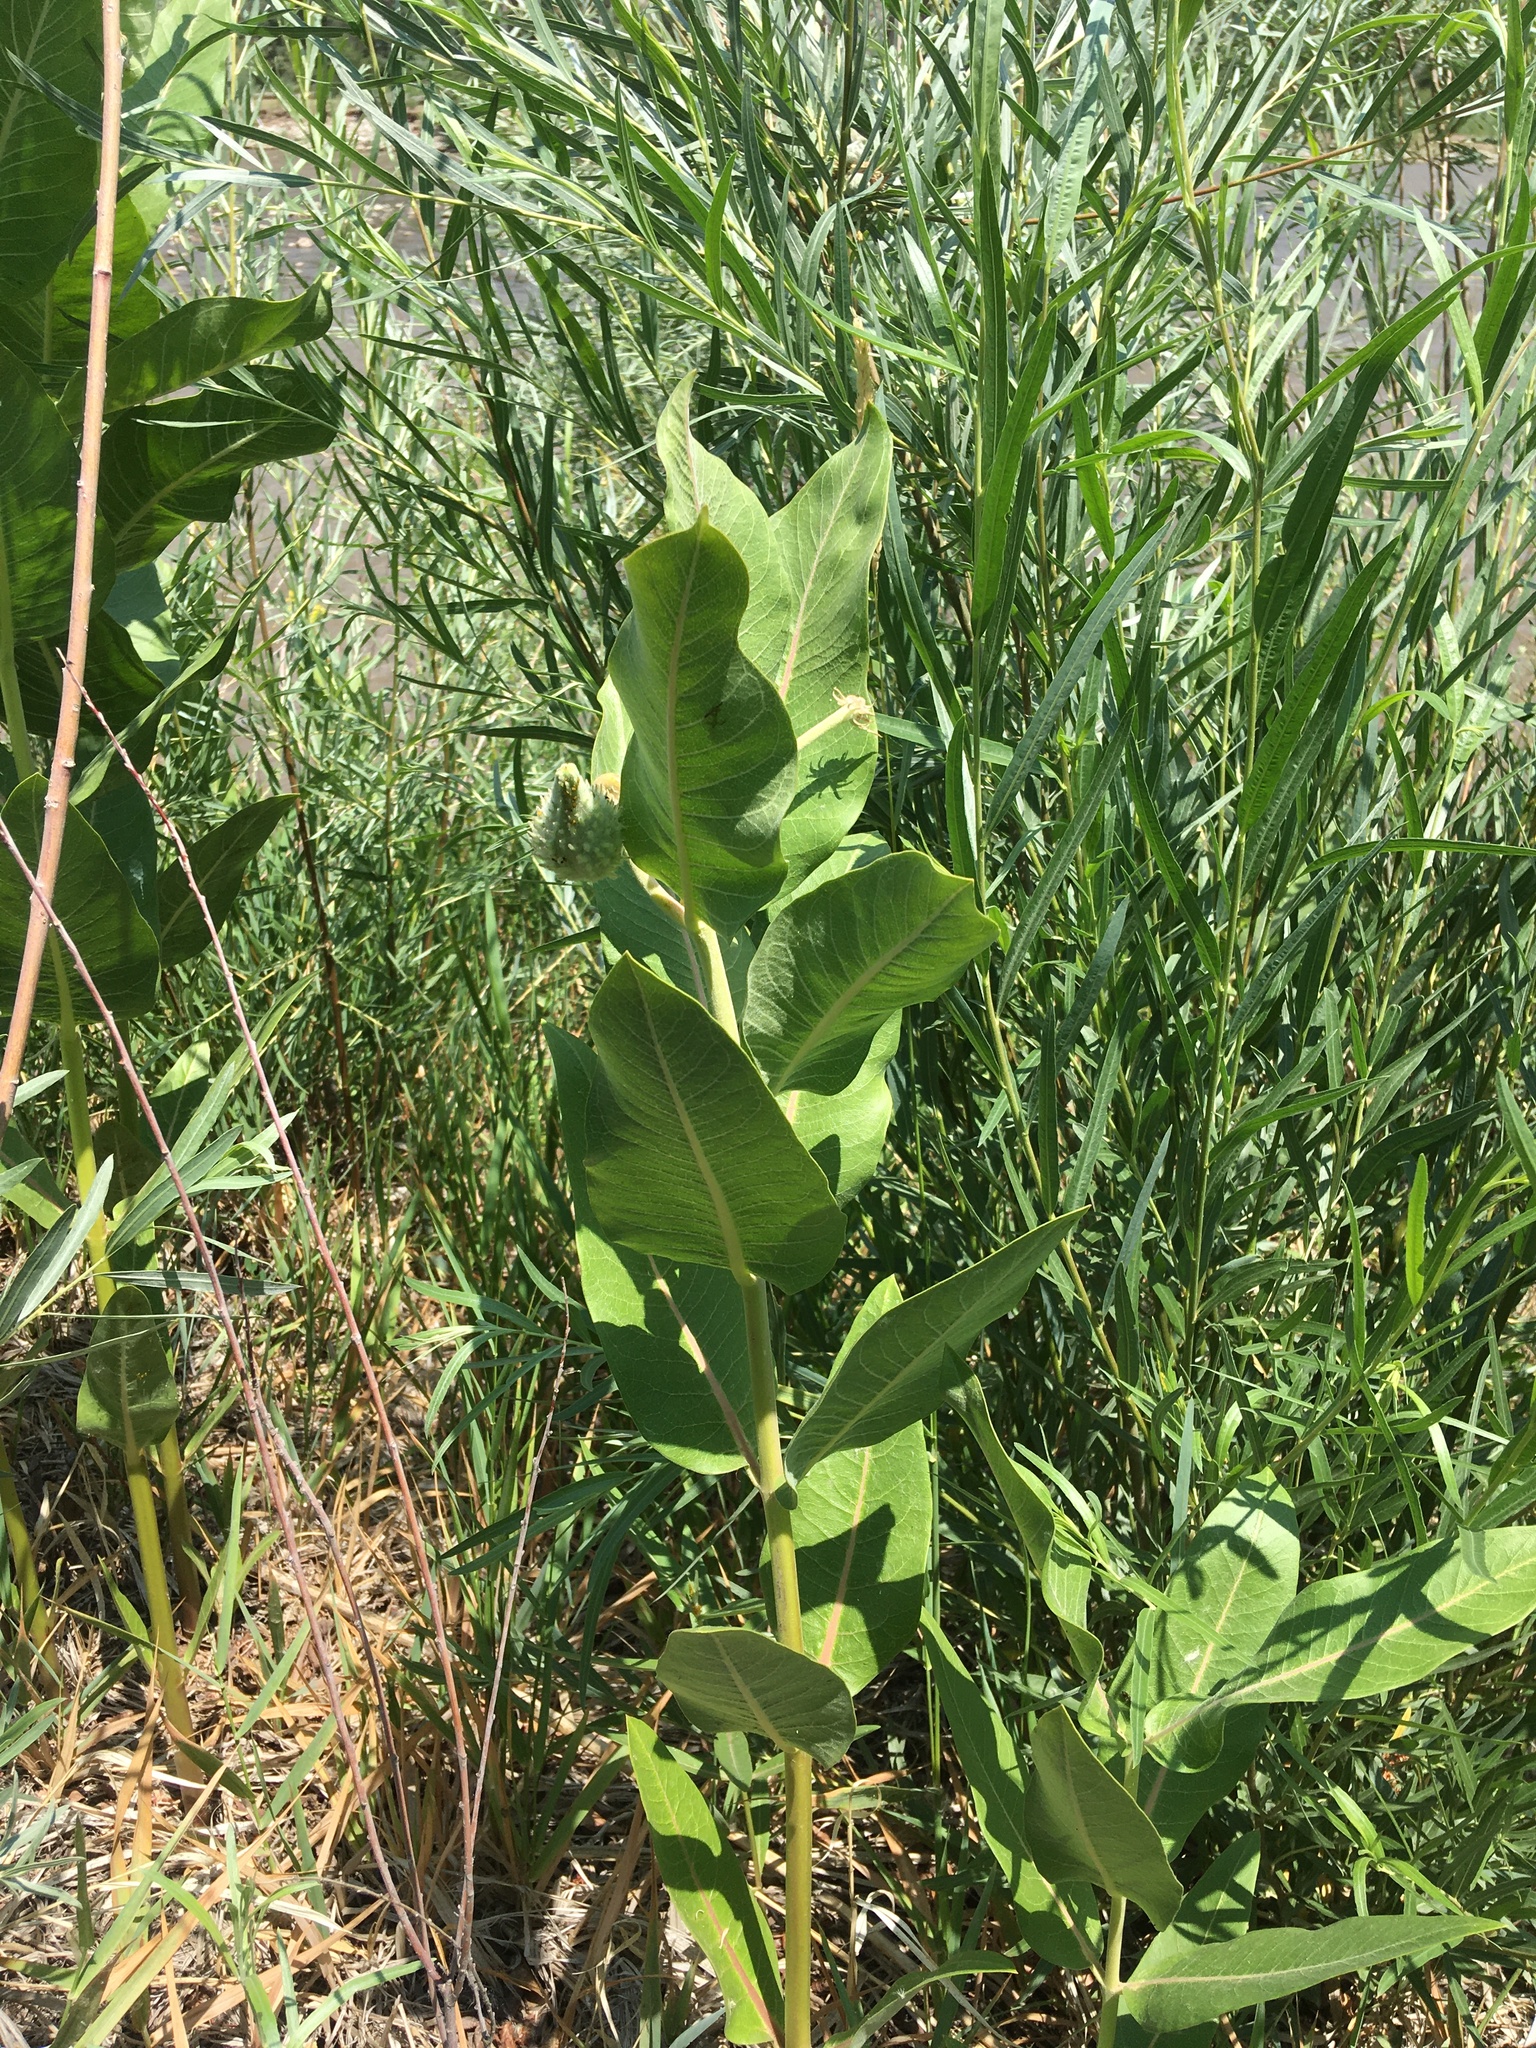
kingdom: Plantae
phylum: Tracheophyta
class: Magnoliopsida
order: Gentianales
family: Apocynaceae
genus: Asclepias
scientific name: Asclepias speciosa
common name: Showy milkweed
